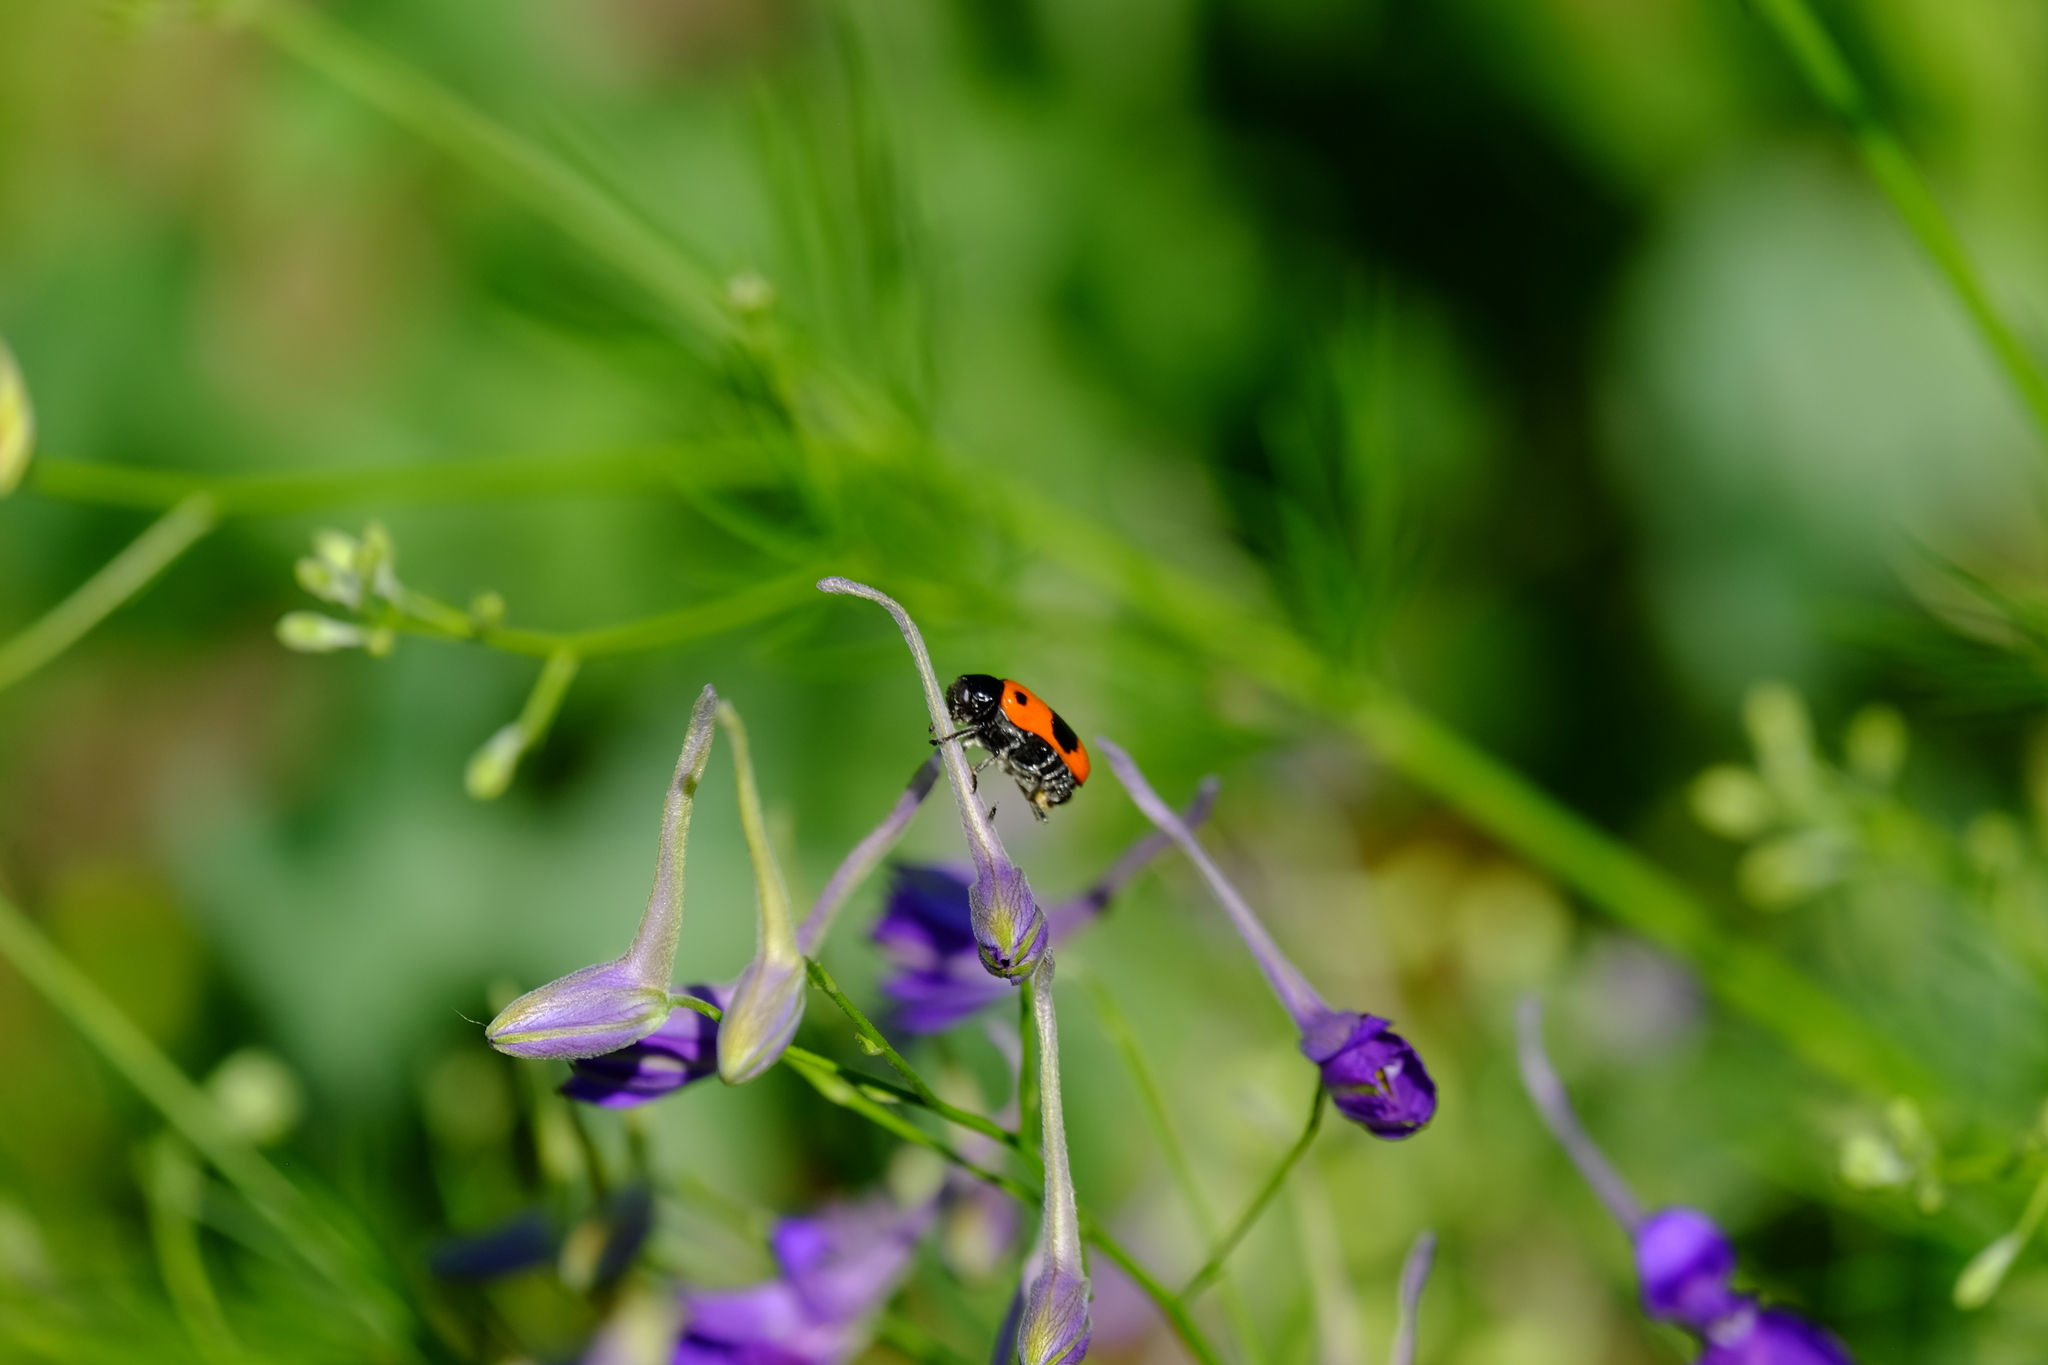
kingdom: Animalia
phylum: Arthropoda
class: Insecta
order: Coleoptera
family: Chrysomelidae
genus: Clytra
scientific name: Clytra laeviuscula
